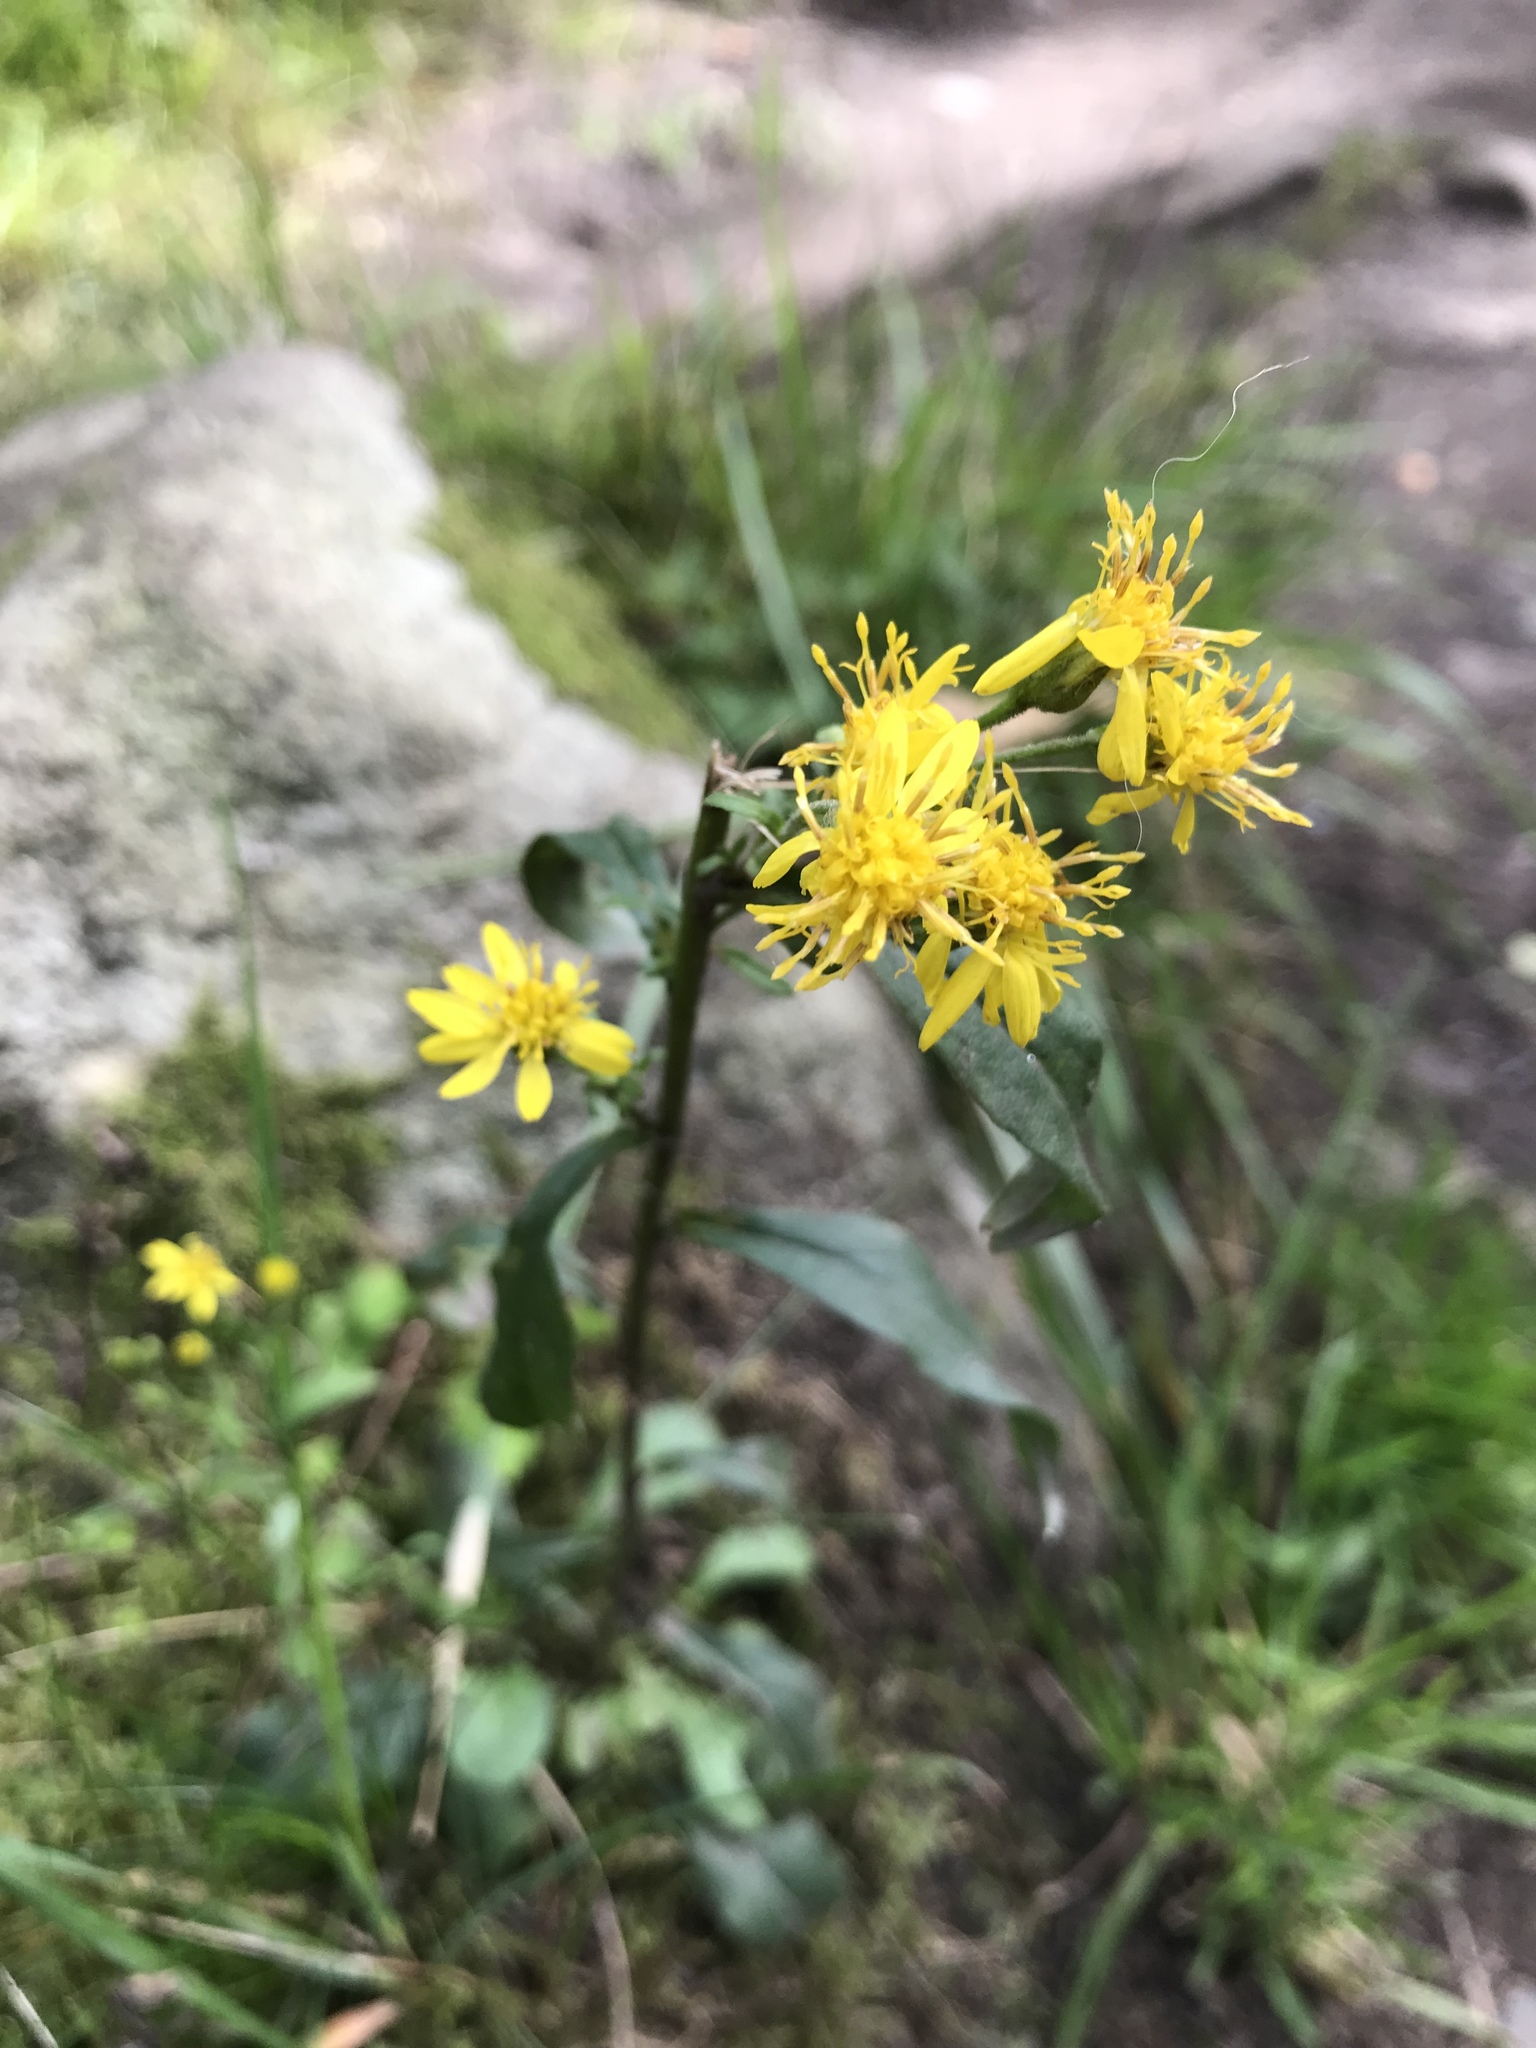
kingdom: Plantae
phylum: Tracheophyta
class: Magnoliopsida
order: Asterales
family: Asteraceae
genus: Solidago
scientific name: Solidago virgaurea
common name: Goldenrod
